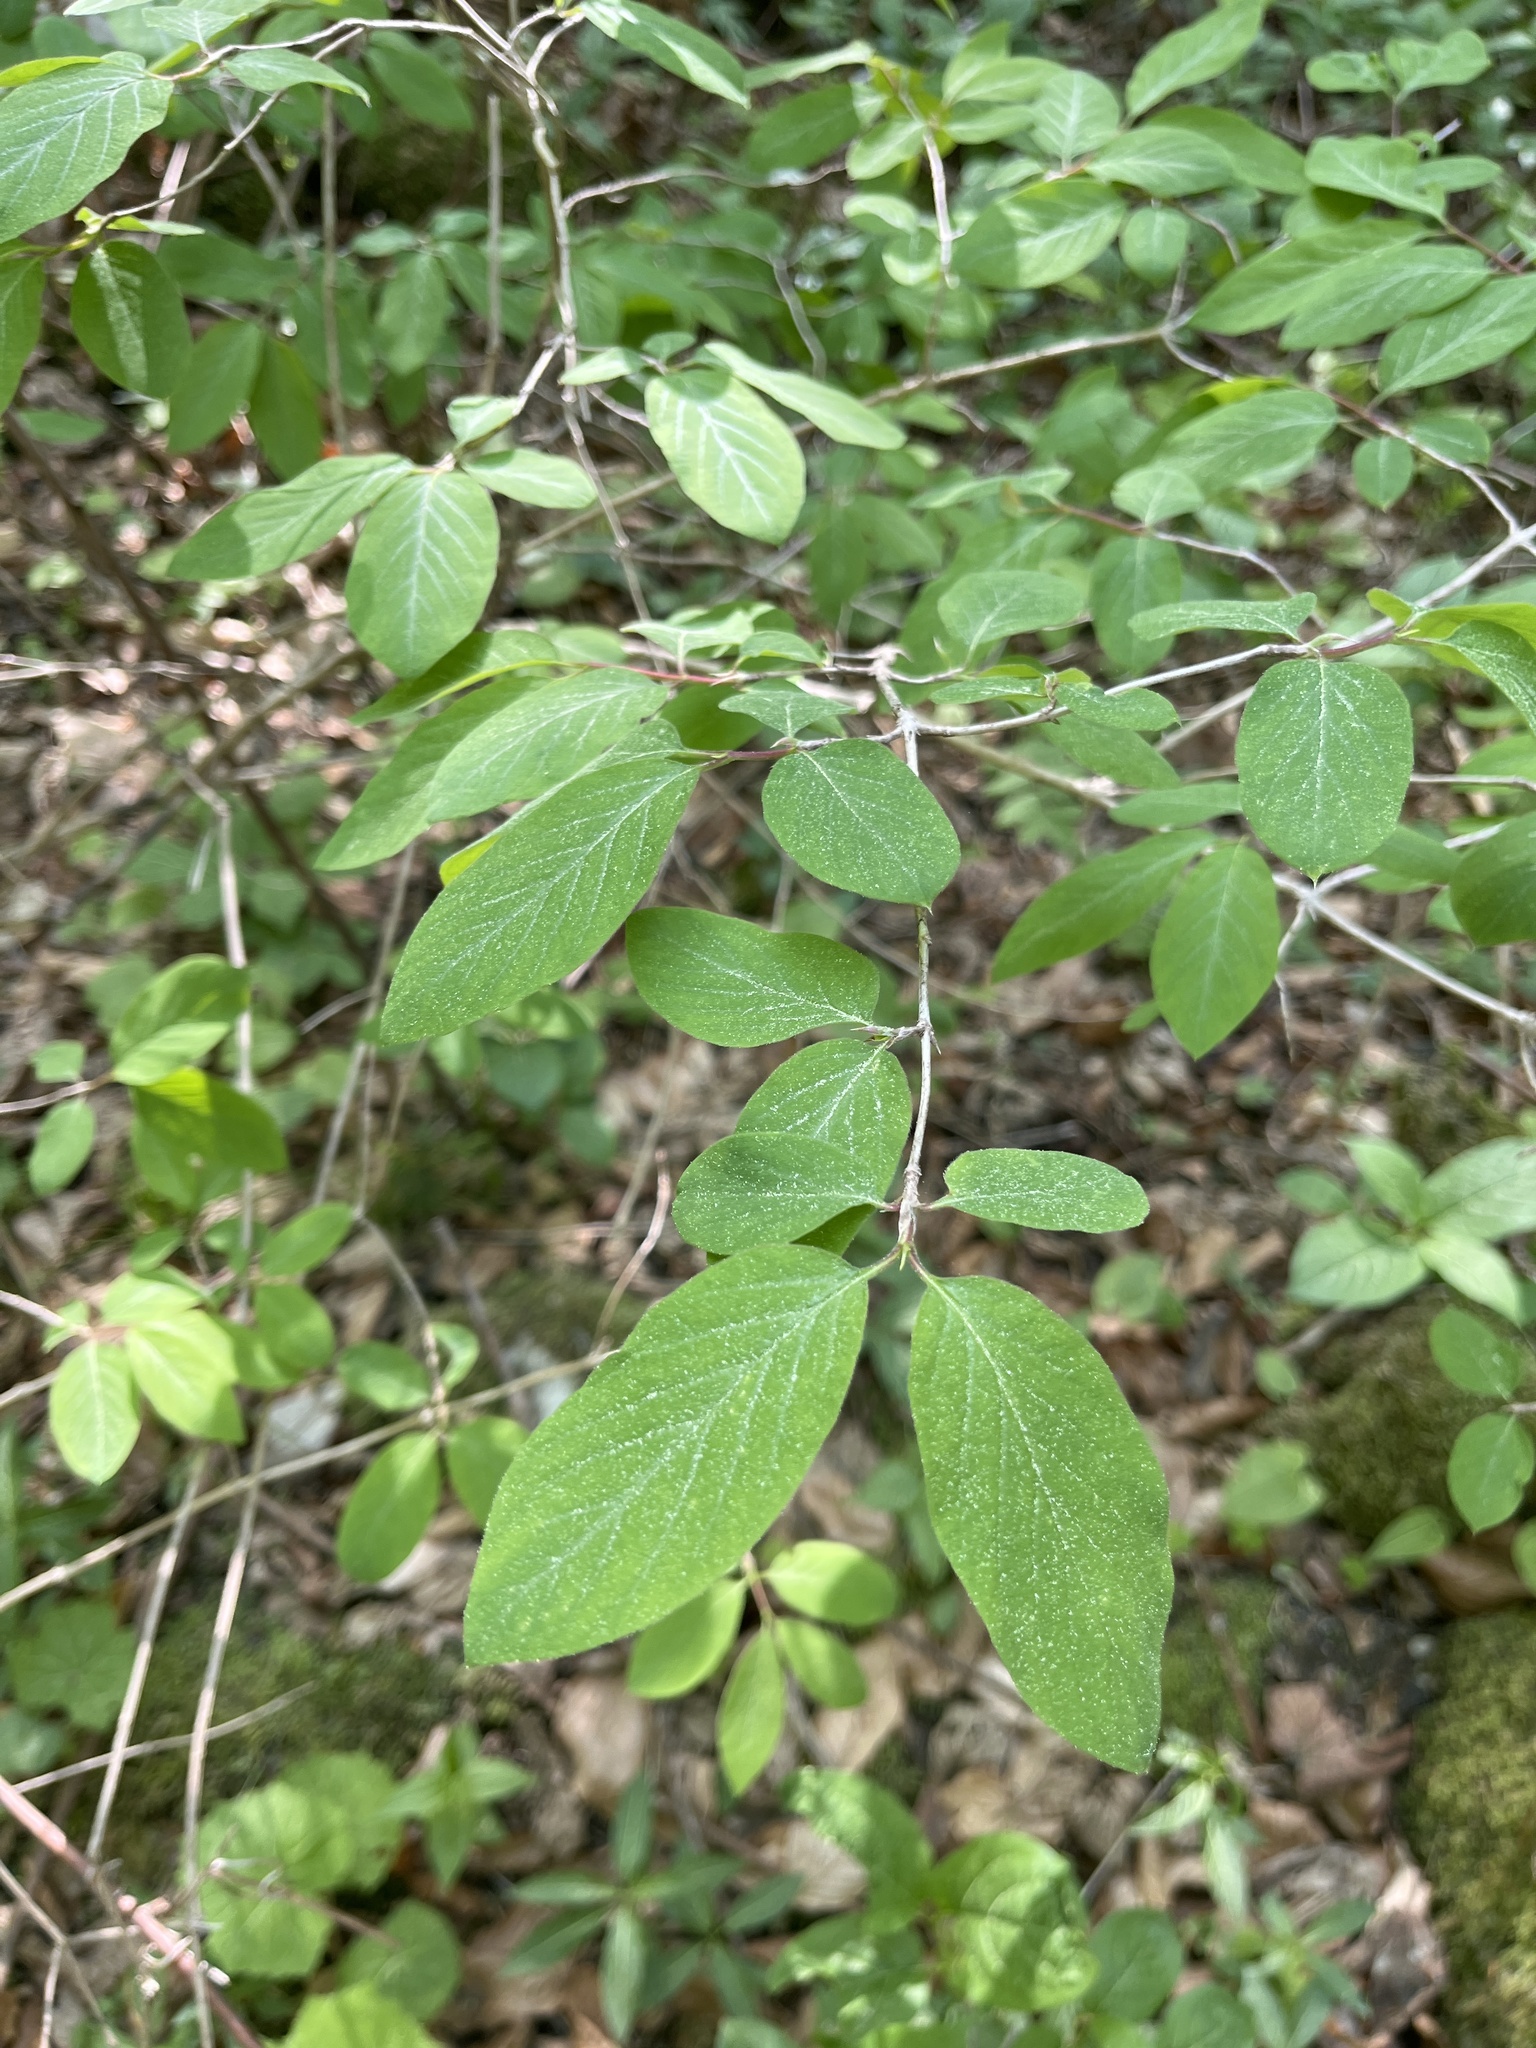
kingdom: Plantae
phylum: Tracheophyta
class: Magnoliopsida
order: Dipsacales
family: Caprifoliaceae
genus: Lonicera
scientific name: Lonicera xylosteum
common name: Fly honeysuckle
